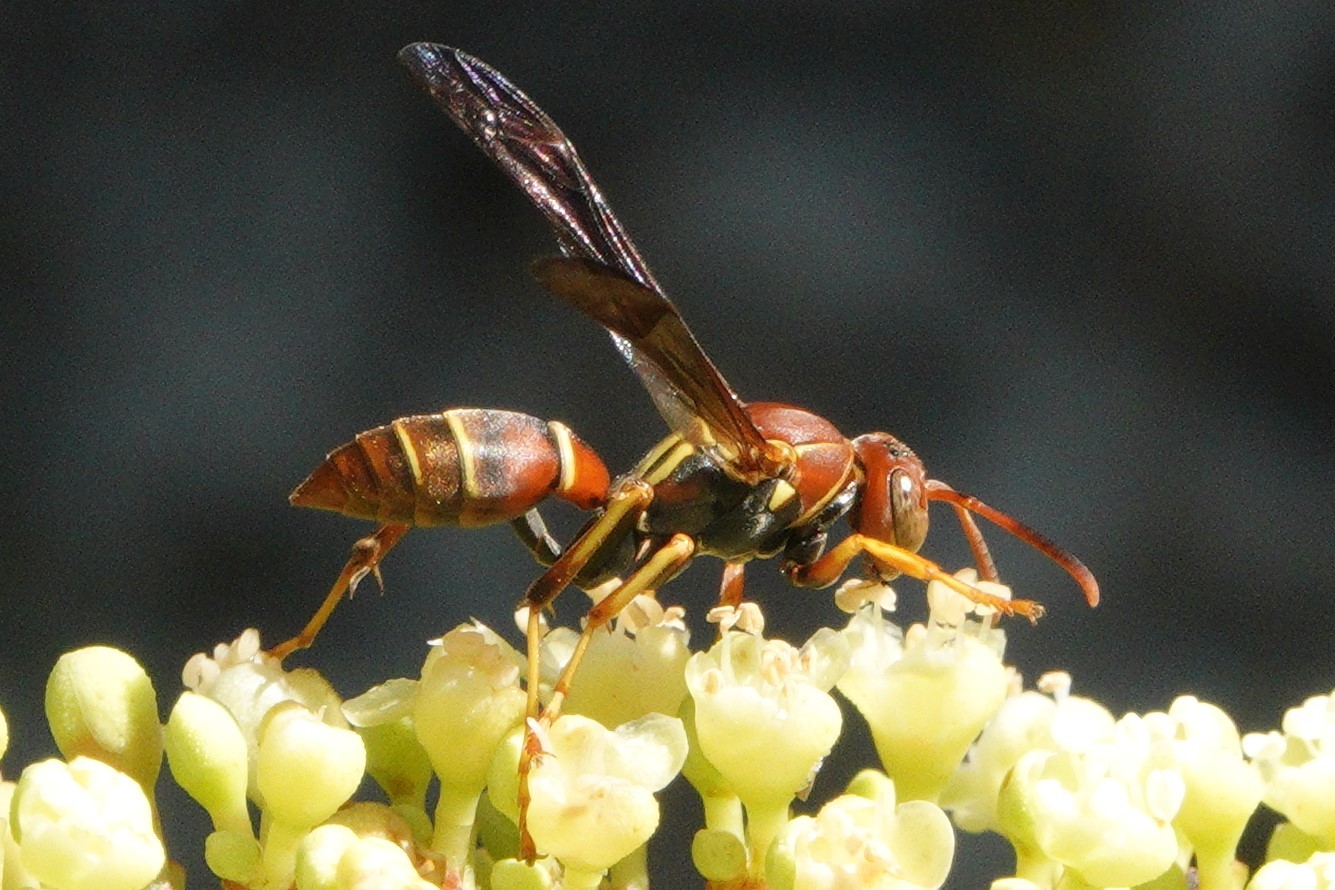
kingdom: Animalia
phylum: Arthropoda
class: Insecta
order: Hymenoptera
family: Eumenidae
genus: Polistes
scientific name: Polistes dorsalis
